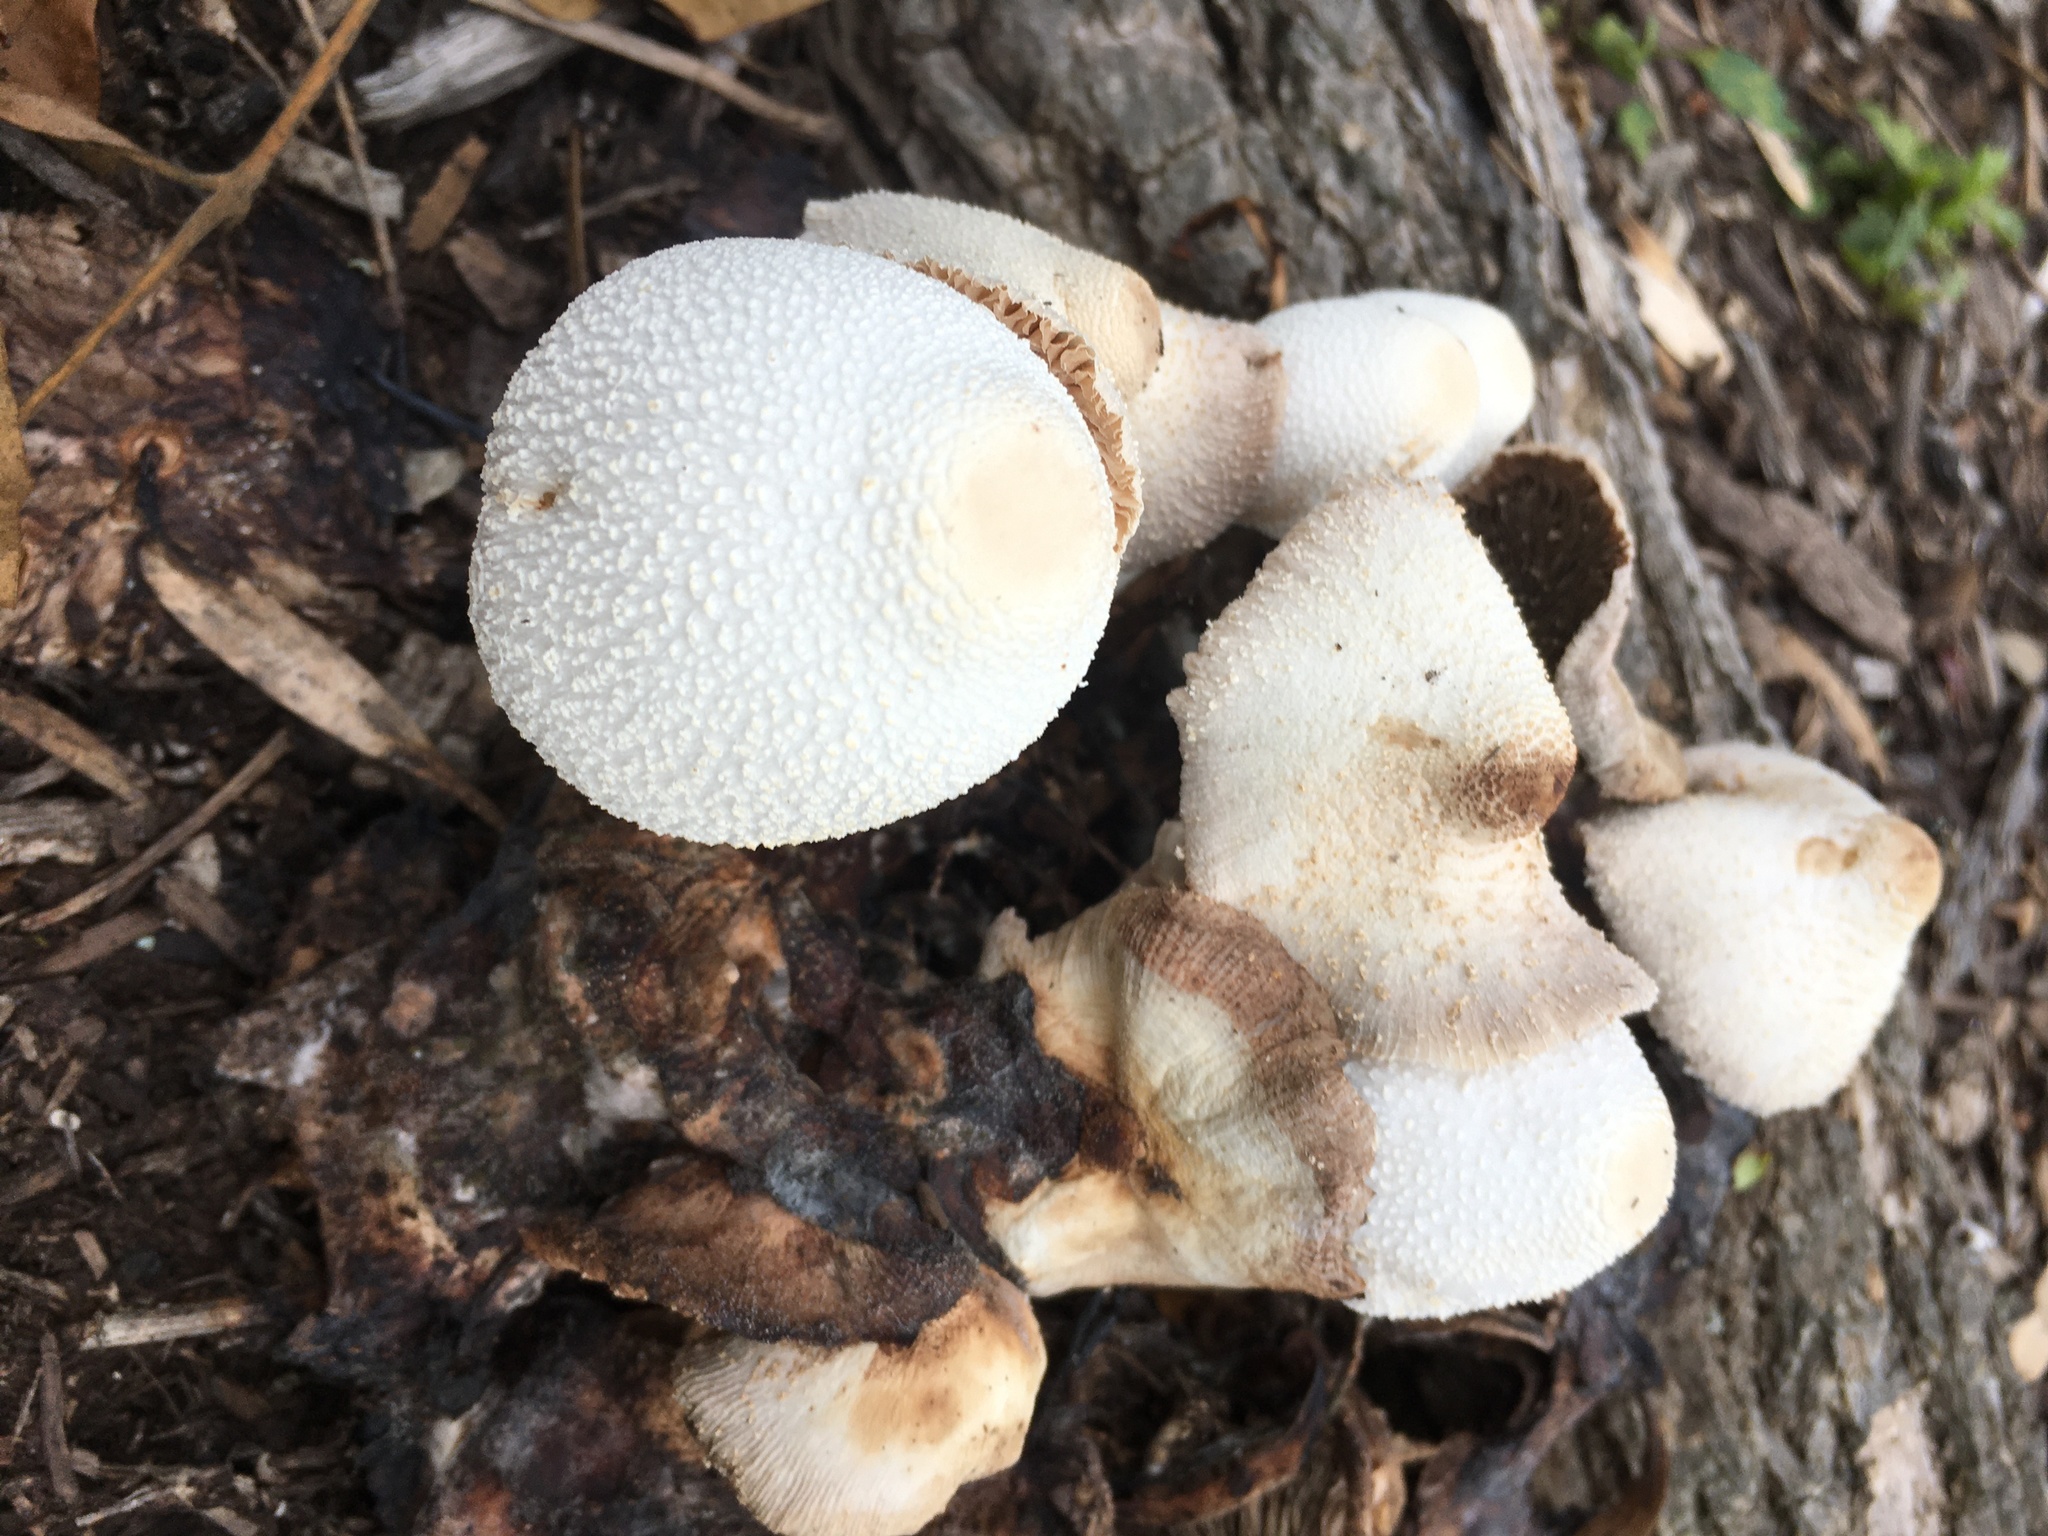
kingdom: Fungi
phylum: Basidiomycota
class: Agaricomycetes
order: Agaricales
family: Agaricaceae
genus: Leucocoprinus
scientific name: Leucocoprinus cepistipes
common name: Onion-stalk parasol
